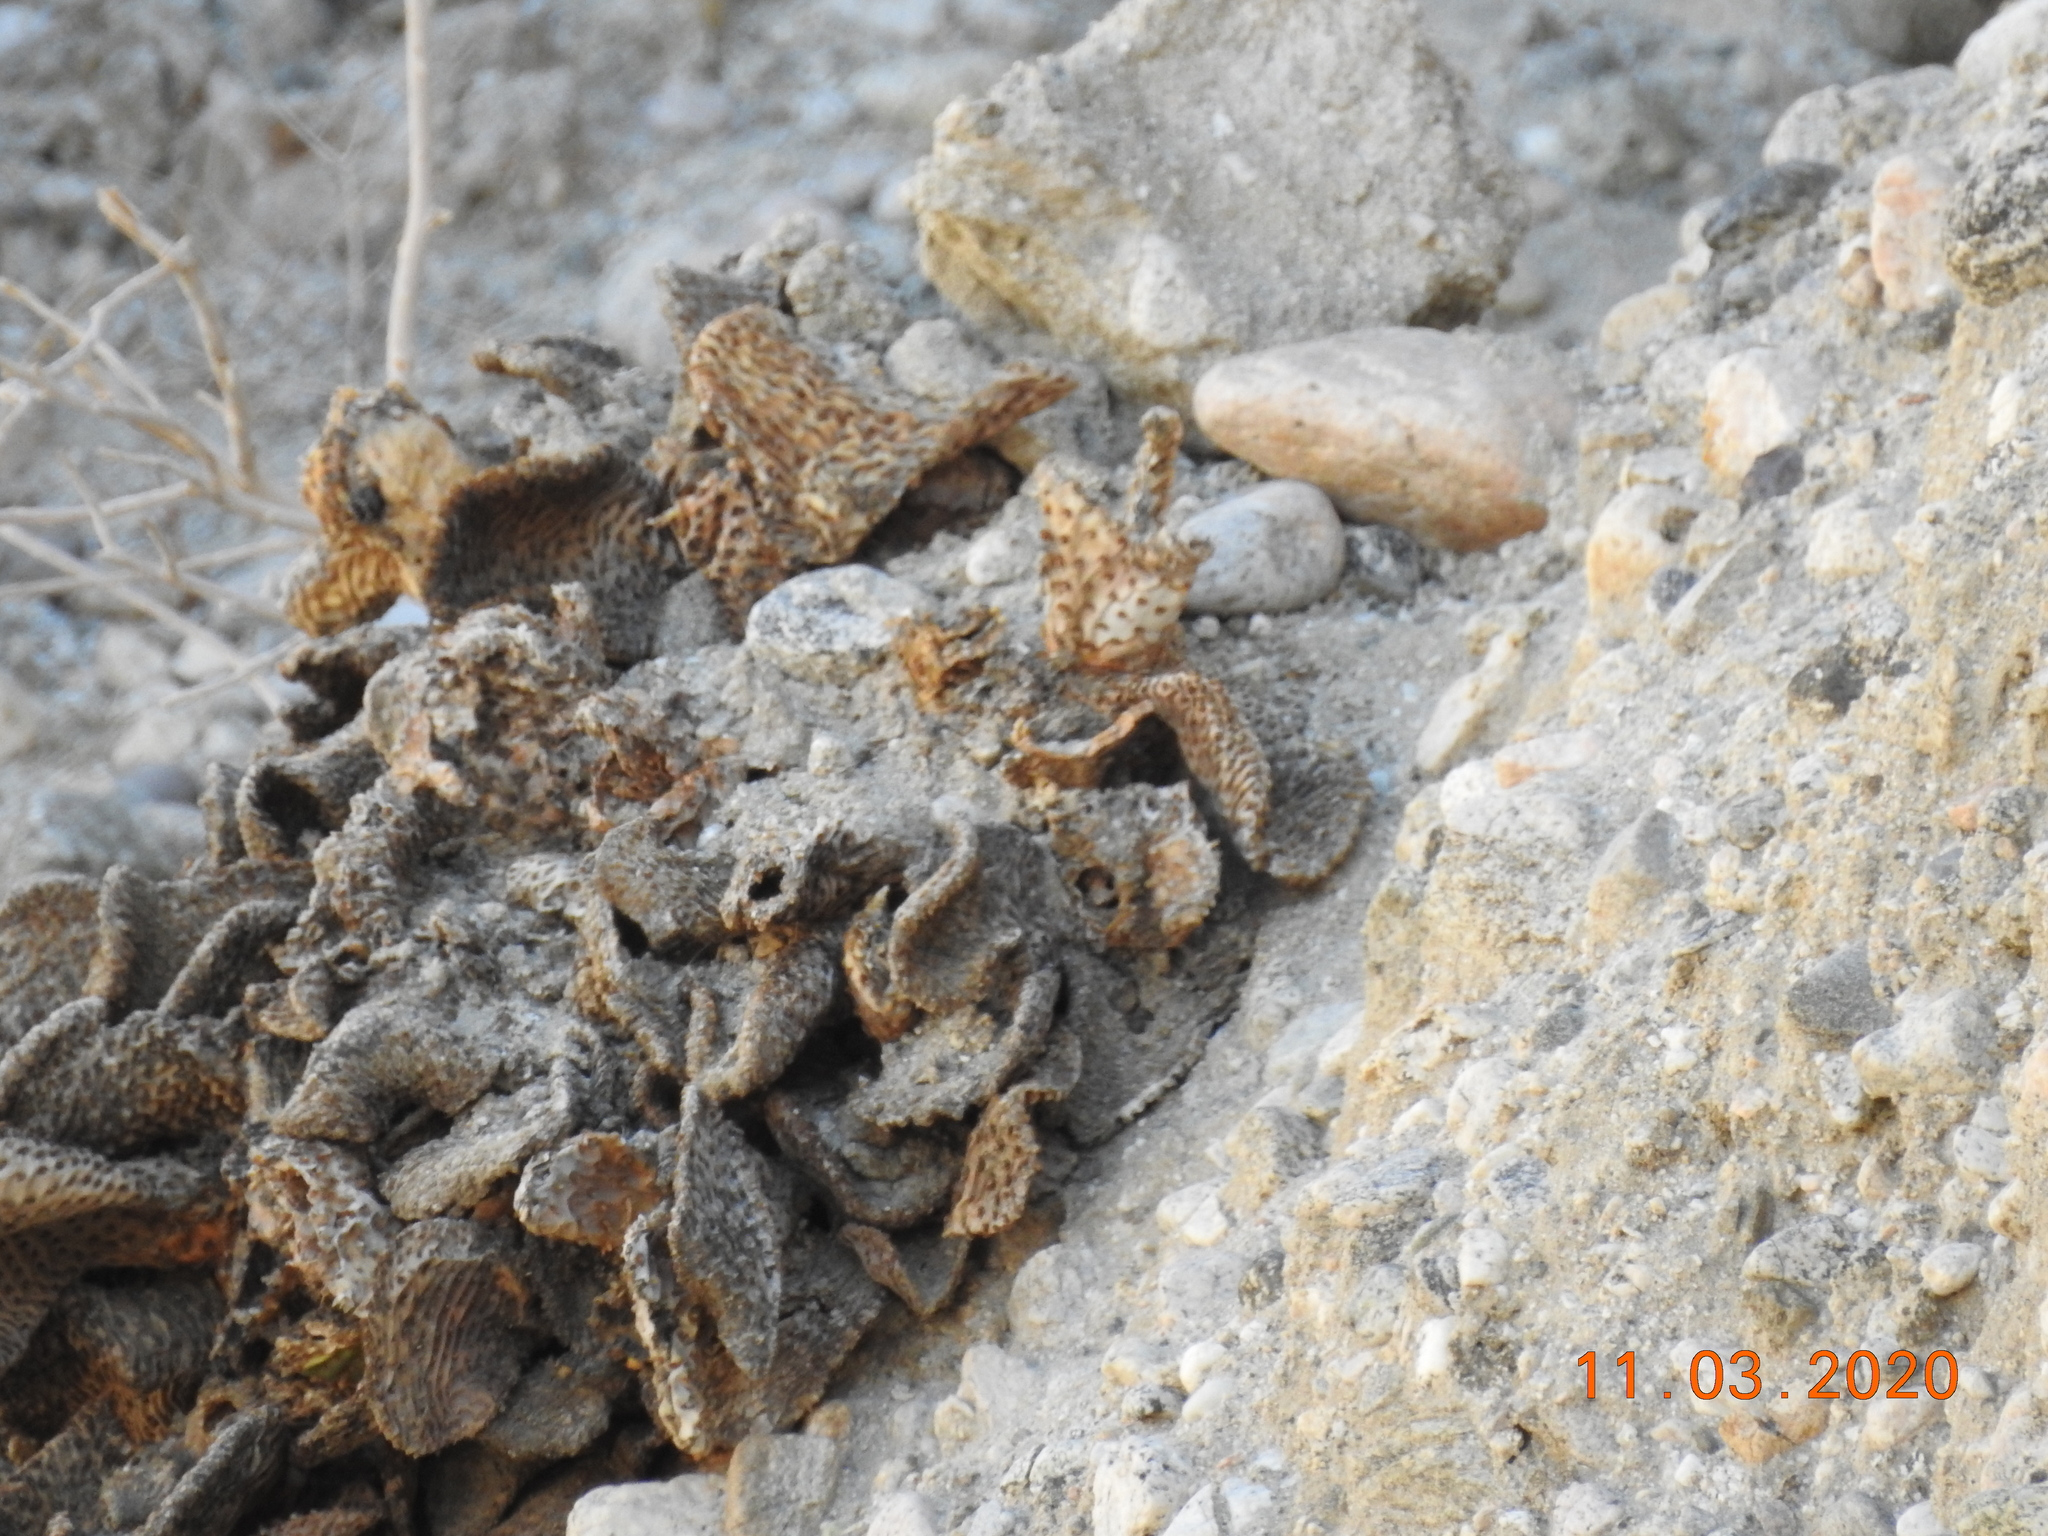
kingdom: Plantae
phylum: Tracheophyta
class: Magnoliopsida
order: Caryophyllales
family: Cactaceae
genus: Opuntia
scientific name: Opuntia basilaris
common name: Beavertail prickly-pear
